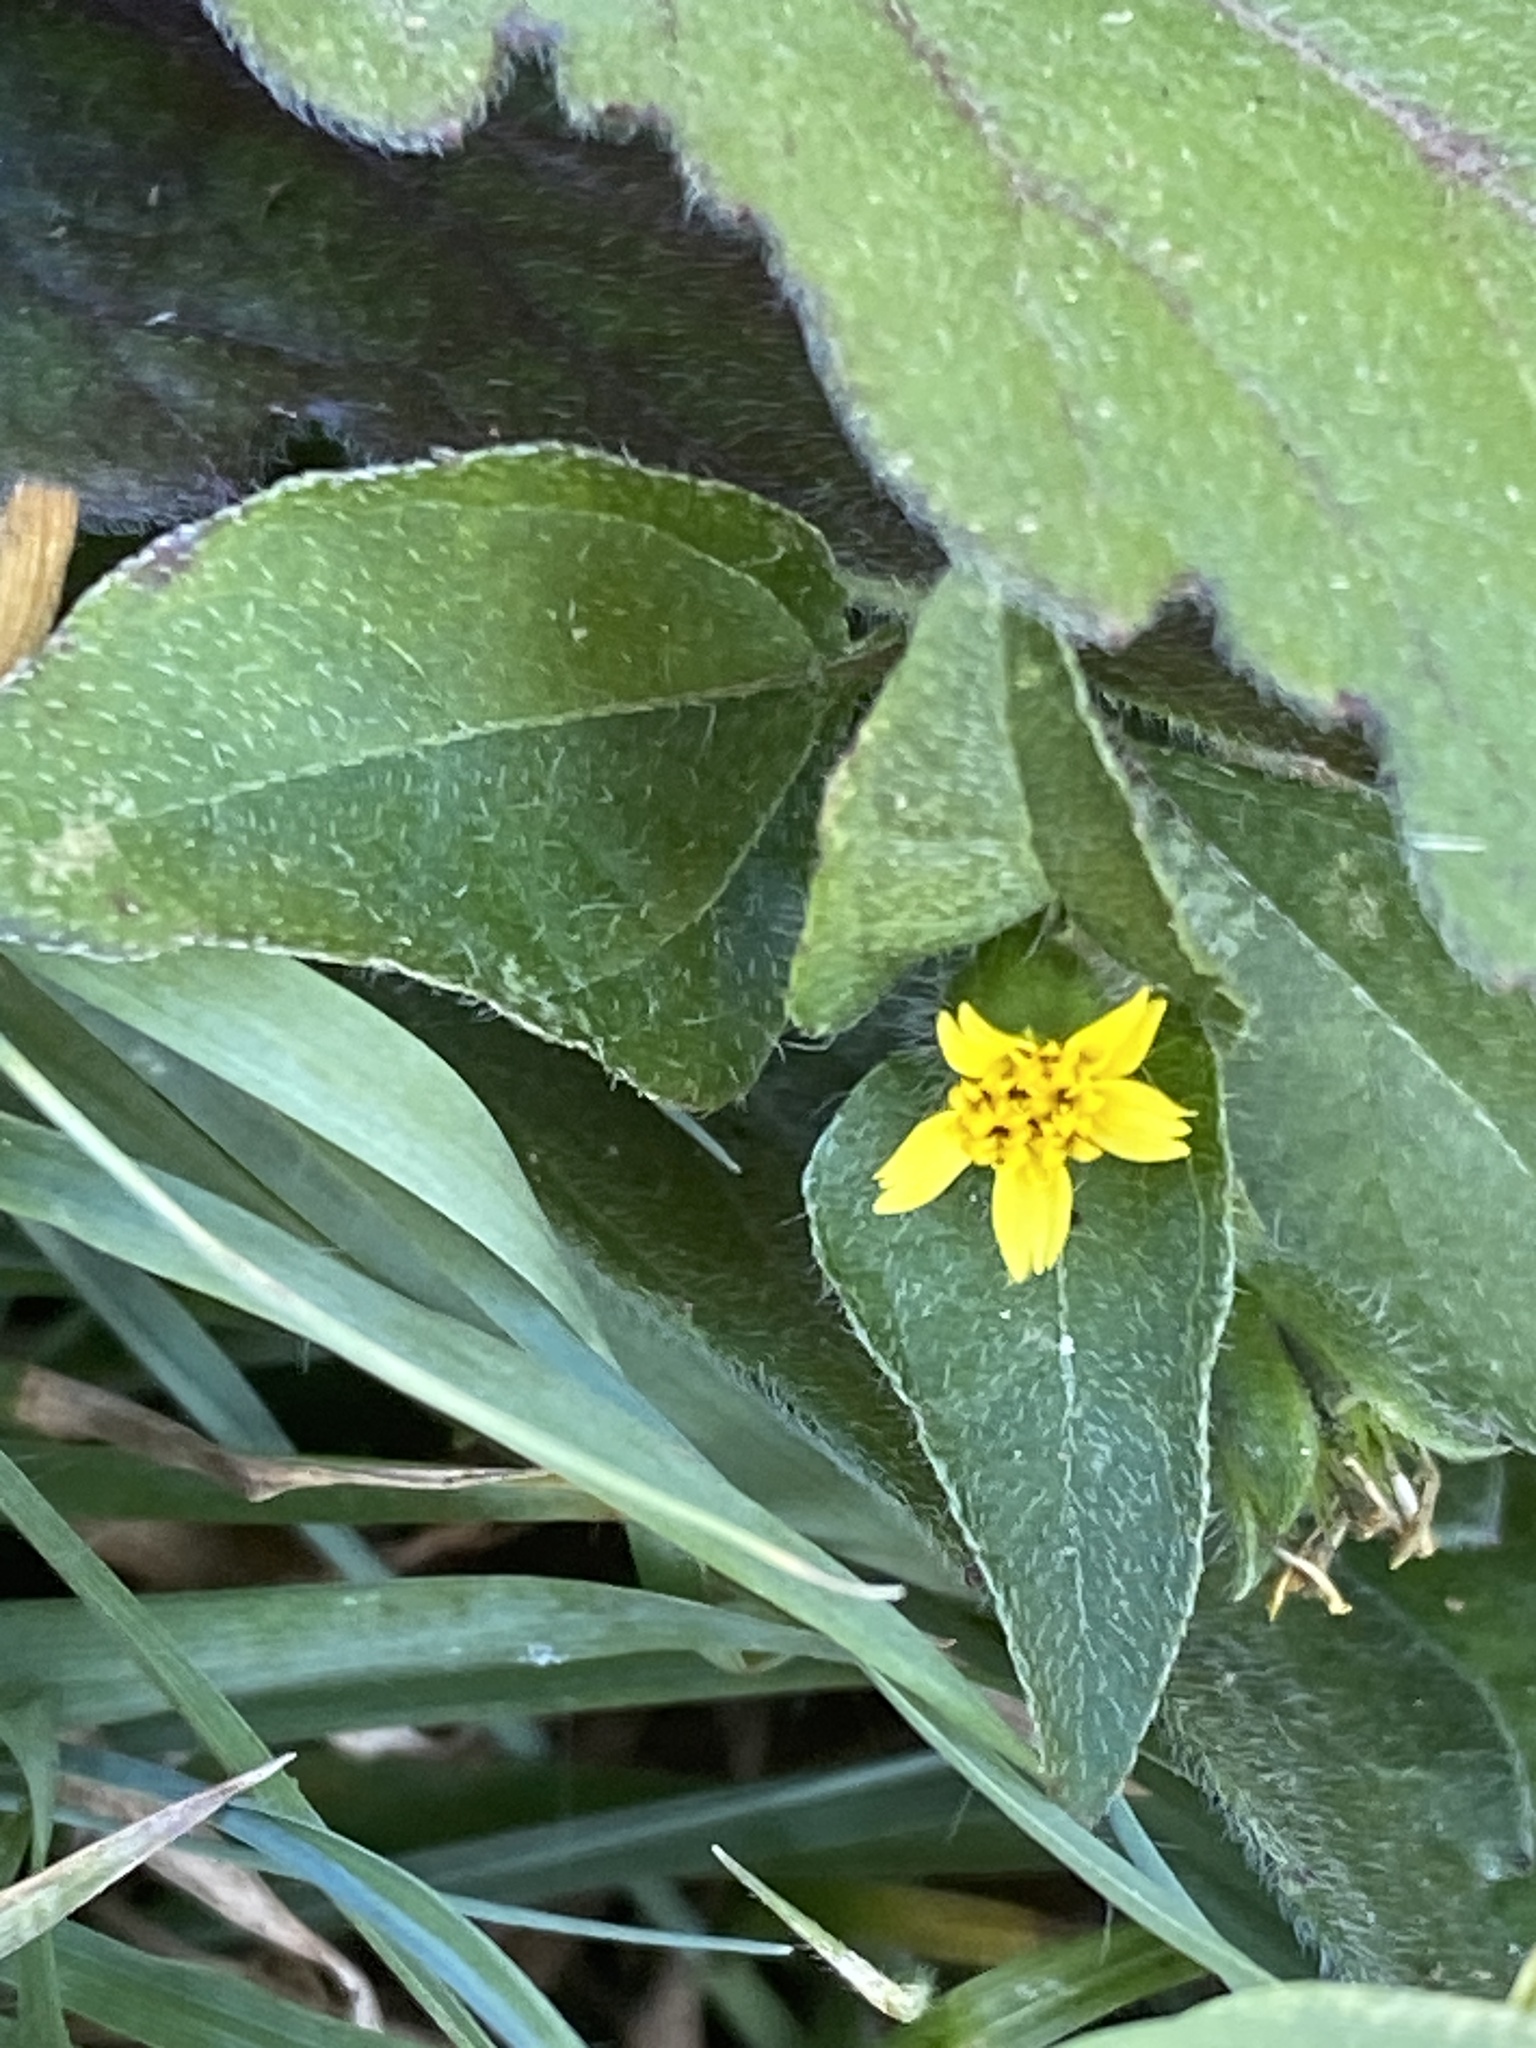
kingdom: Plantae
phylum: Tracheophyta
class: Magnoliopsida
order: Asterales
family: Asteraceae
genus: Calyptocarpus
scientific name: Calyptocarpus vialis
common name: Straggler daisy
